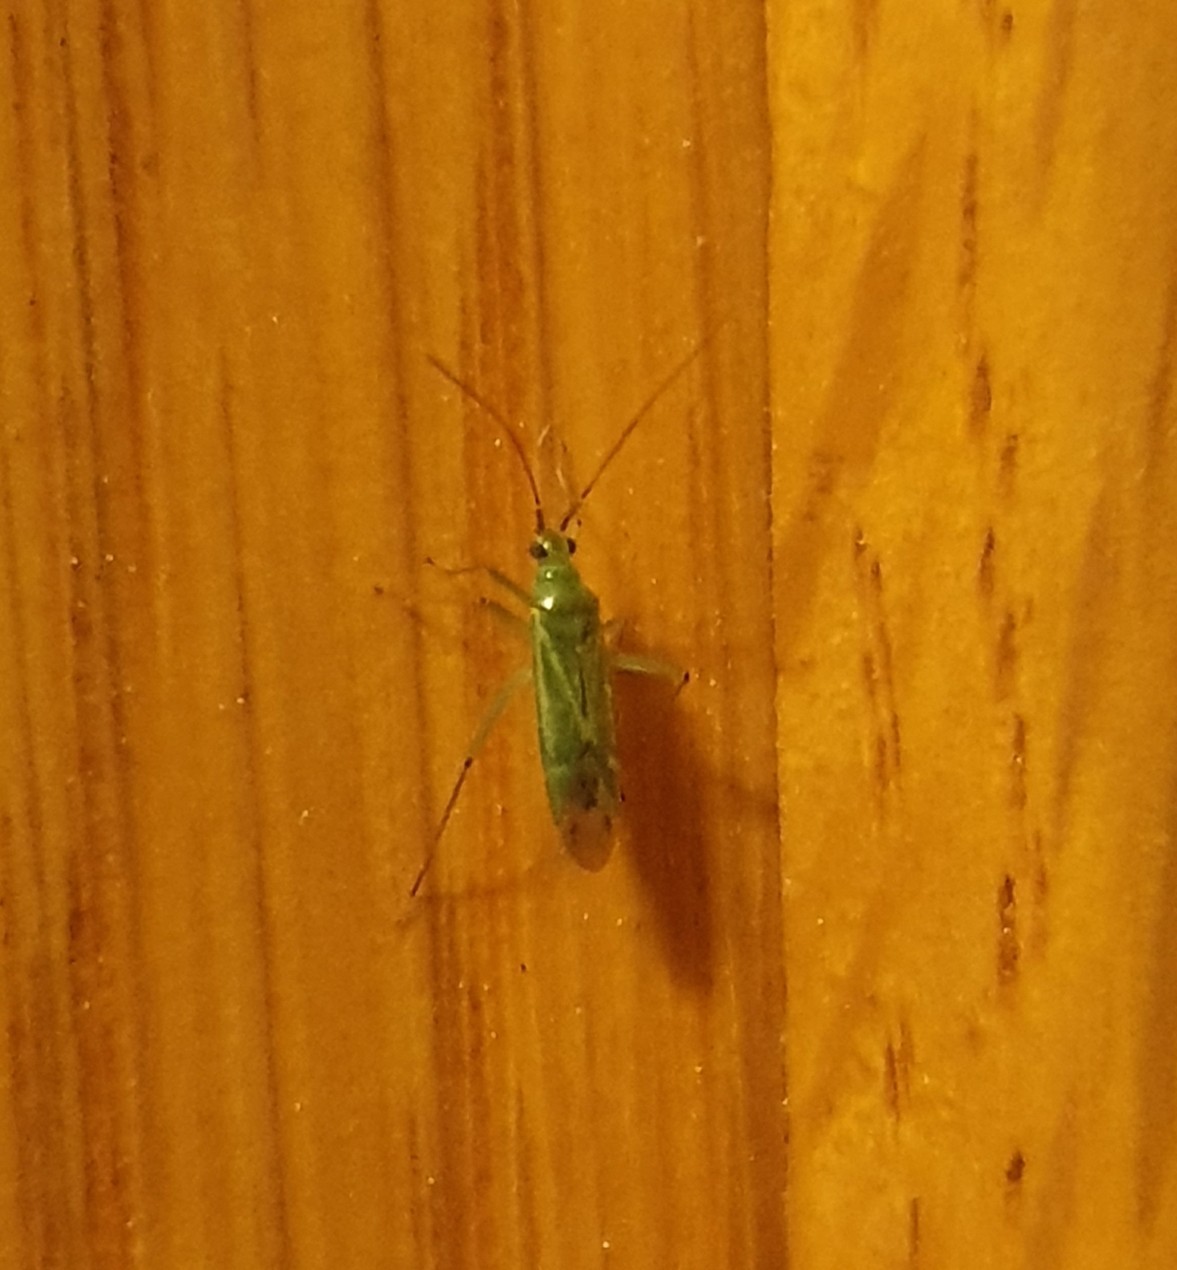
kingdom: Animalia
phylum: Arthropoda
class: Insecta
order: Hemiptera
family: Miridae
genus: Blepharidopterus
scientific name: Blepharidopterus angulatus
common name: Plant bug
